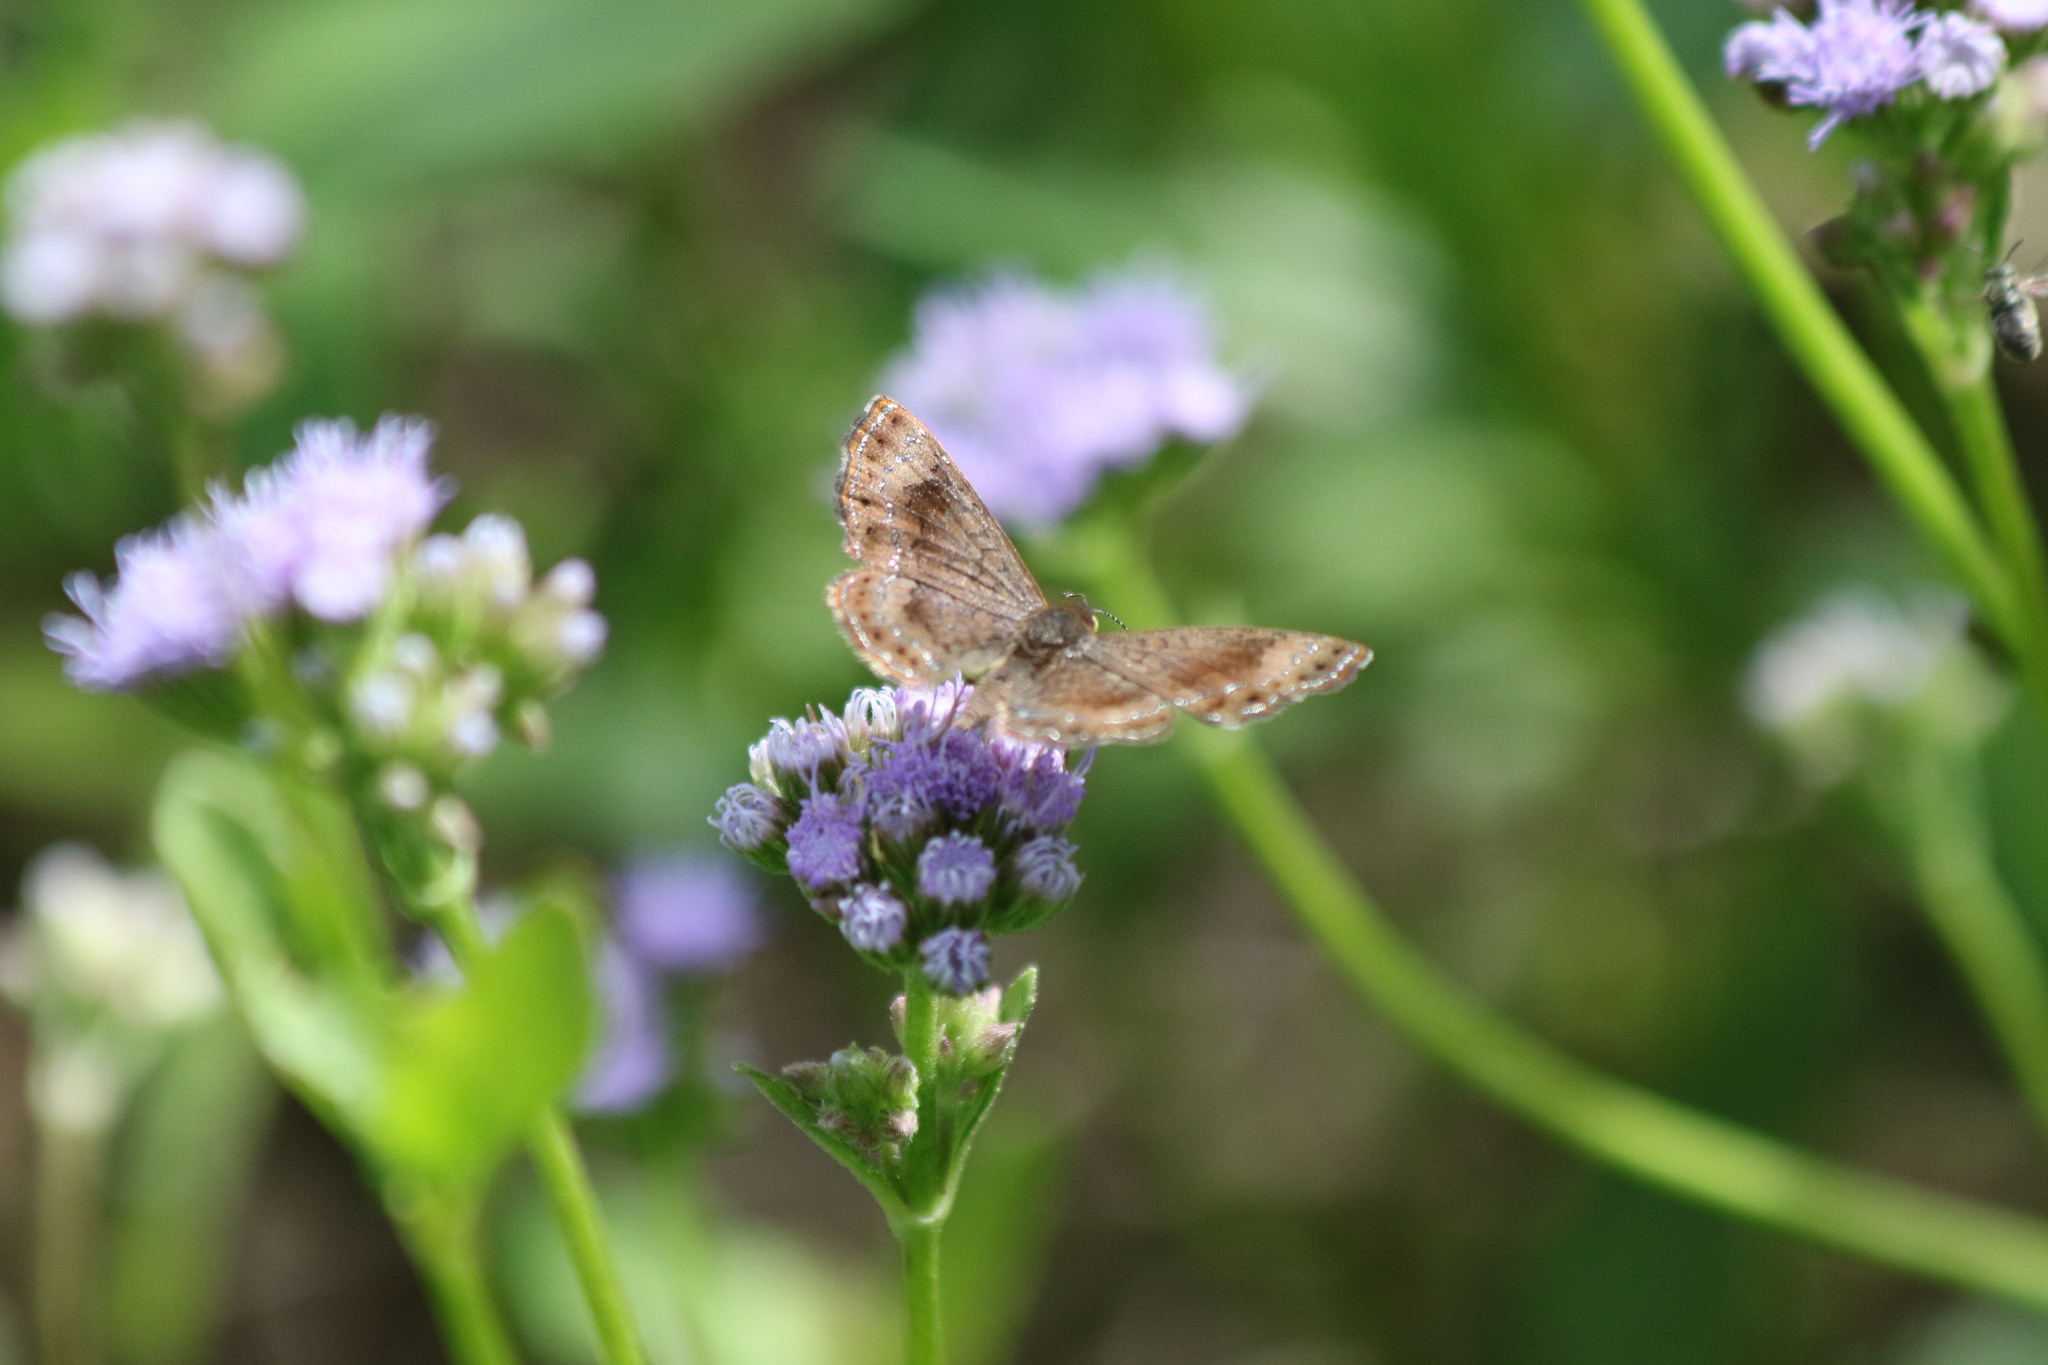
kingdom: Animalia
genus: Calephelis
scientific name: Calephelis nemesis
